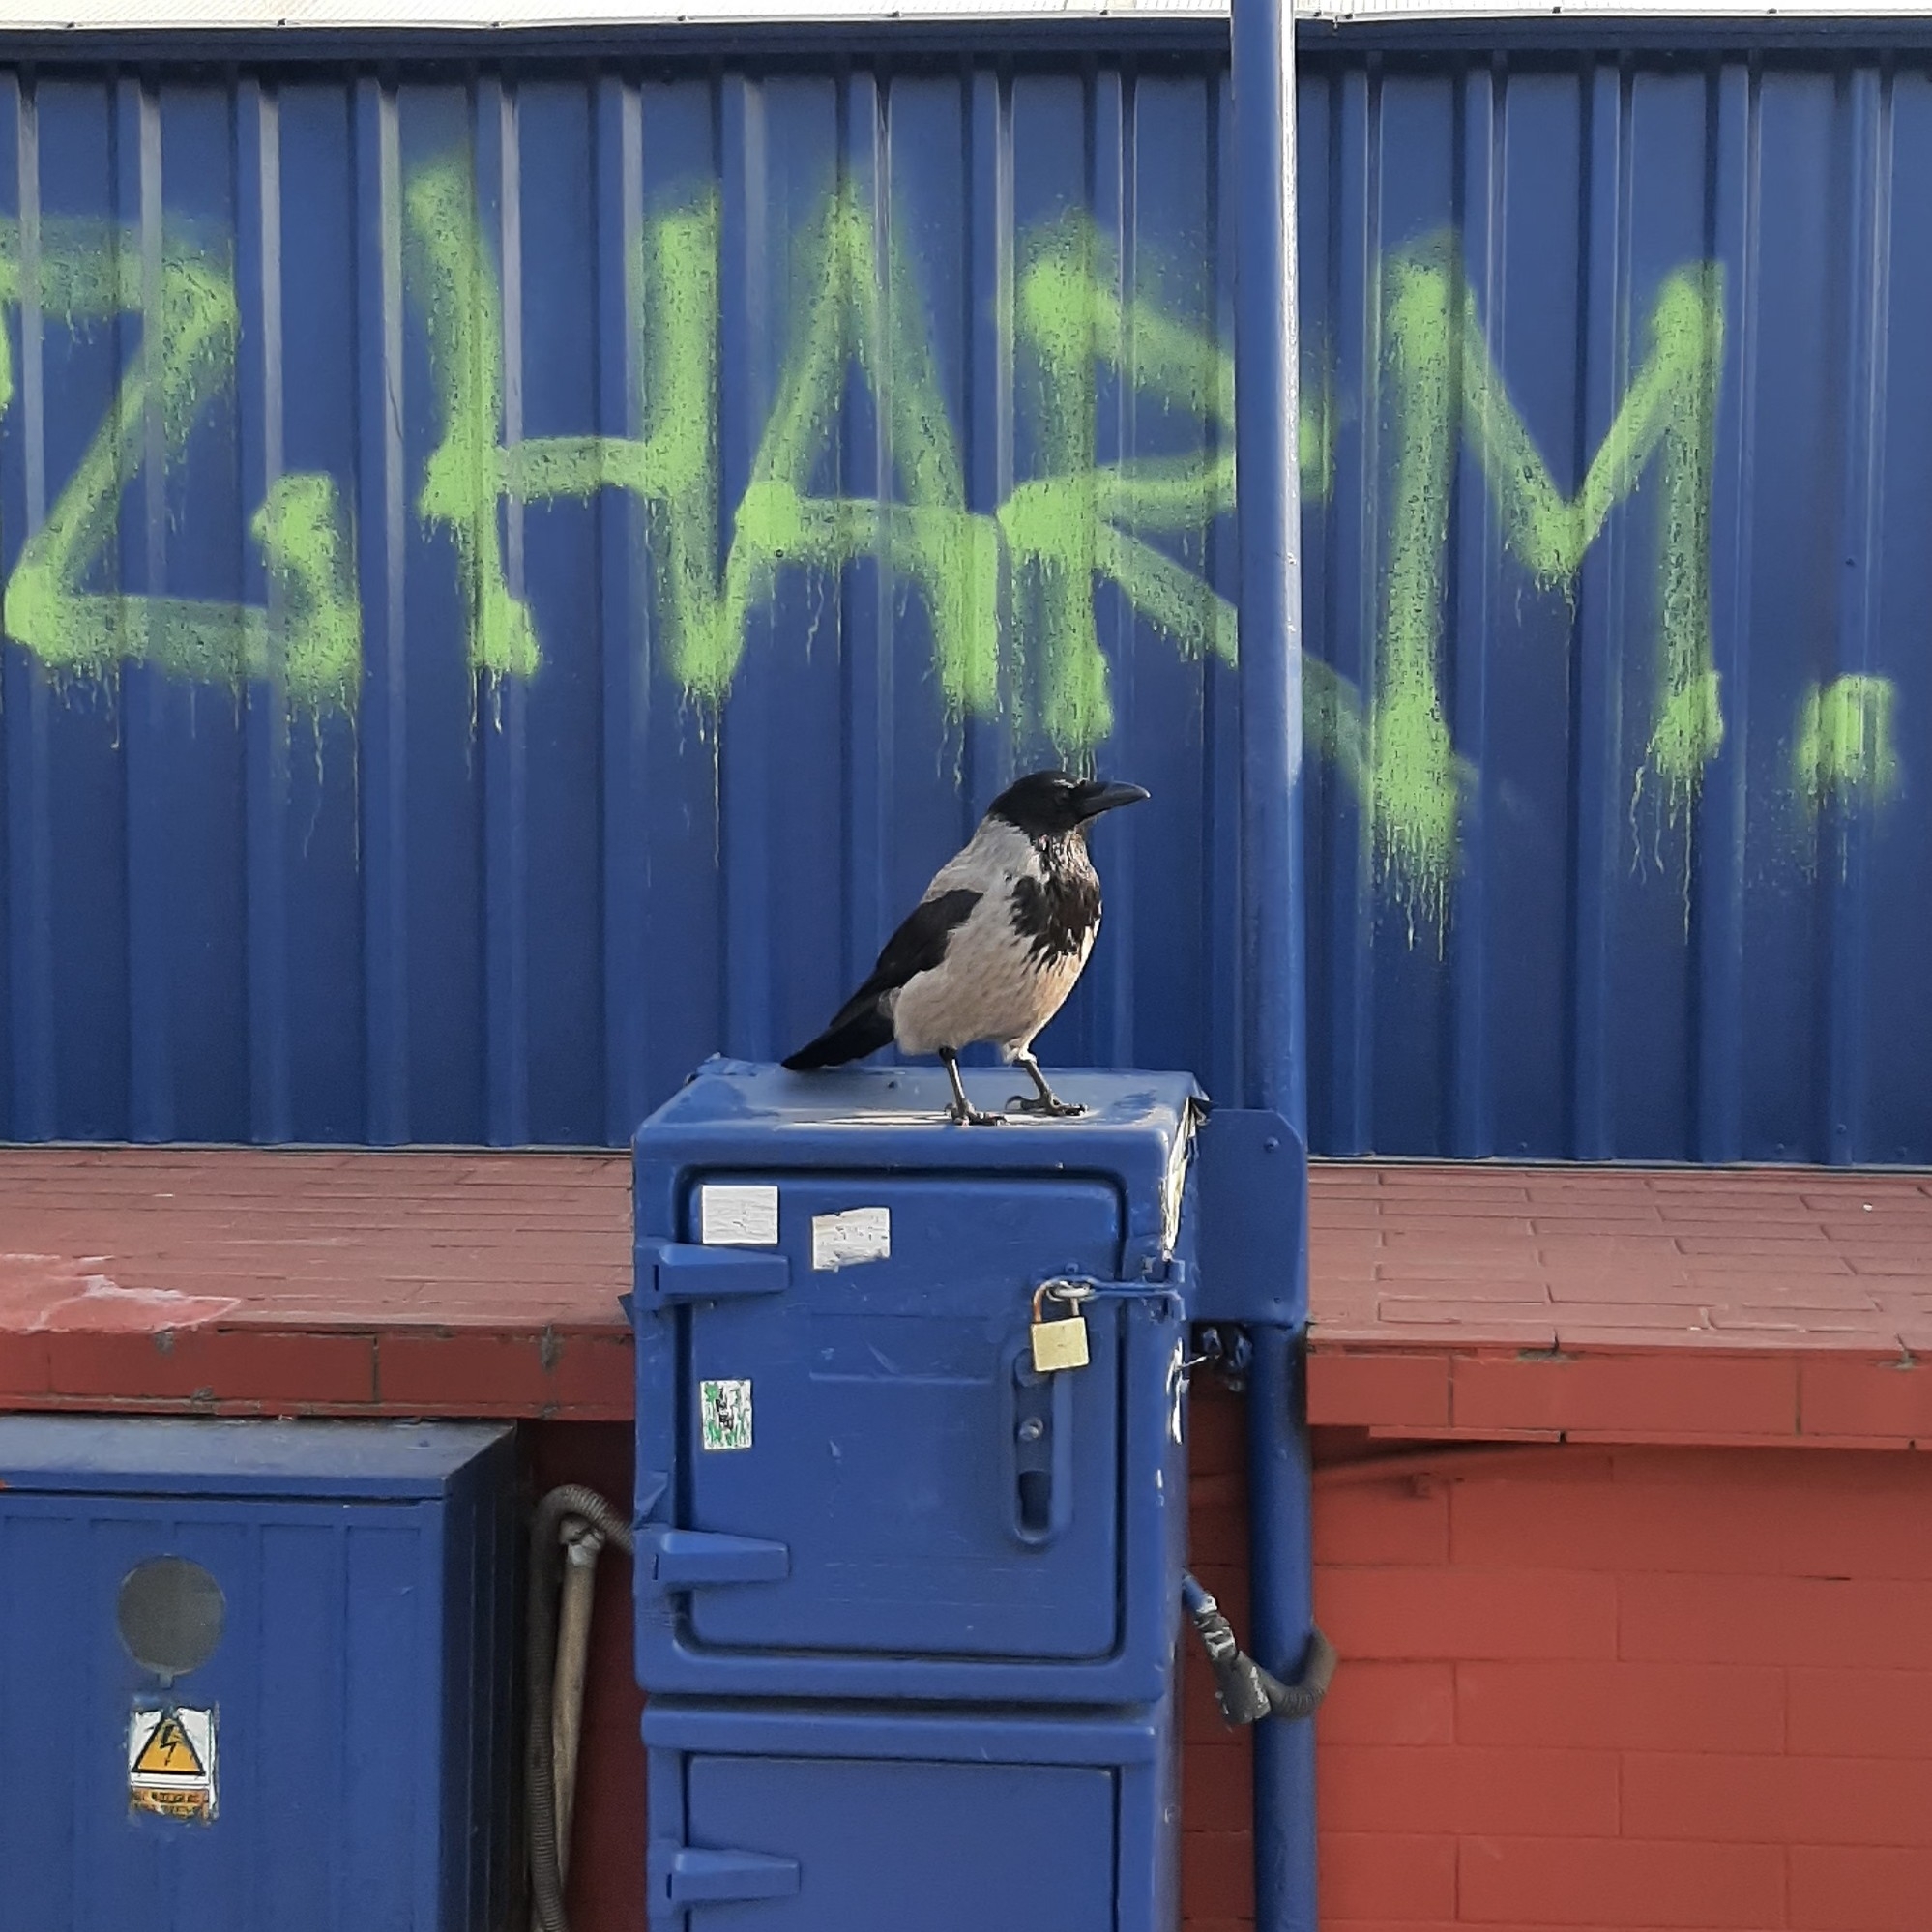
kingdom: Animalia
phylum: Chordata
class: Aves
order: Passeriformes
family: Corvidae
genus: Corvus
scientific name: Corvus cornix
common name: Hooded crow
